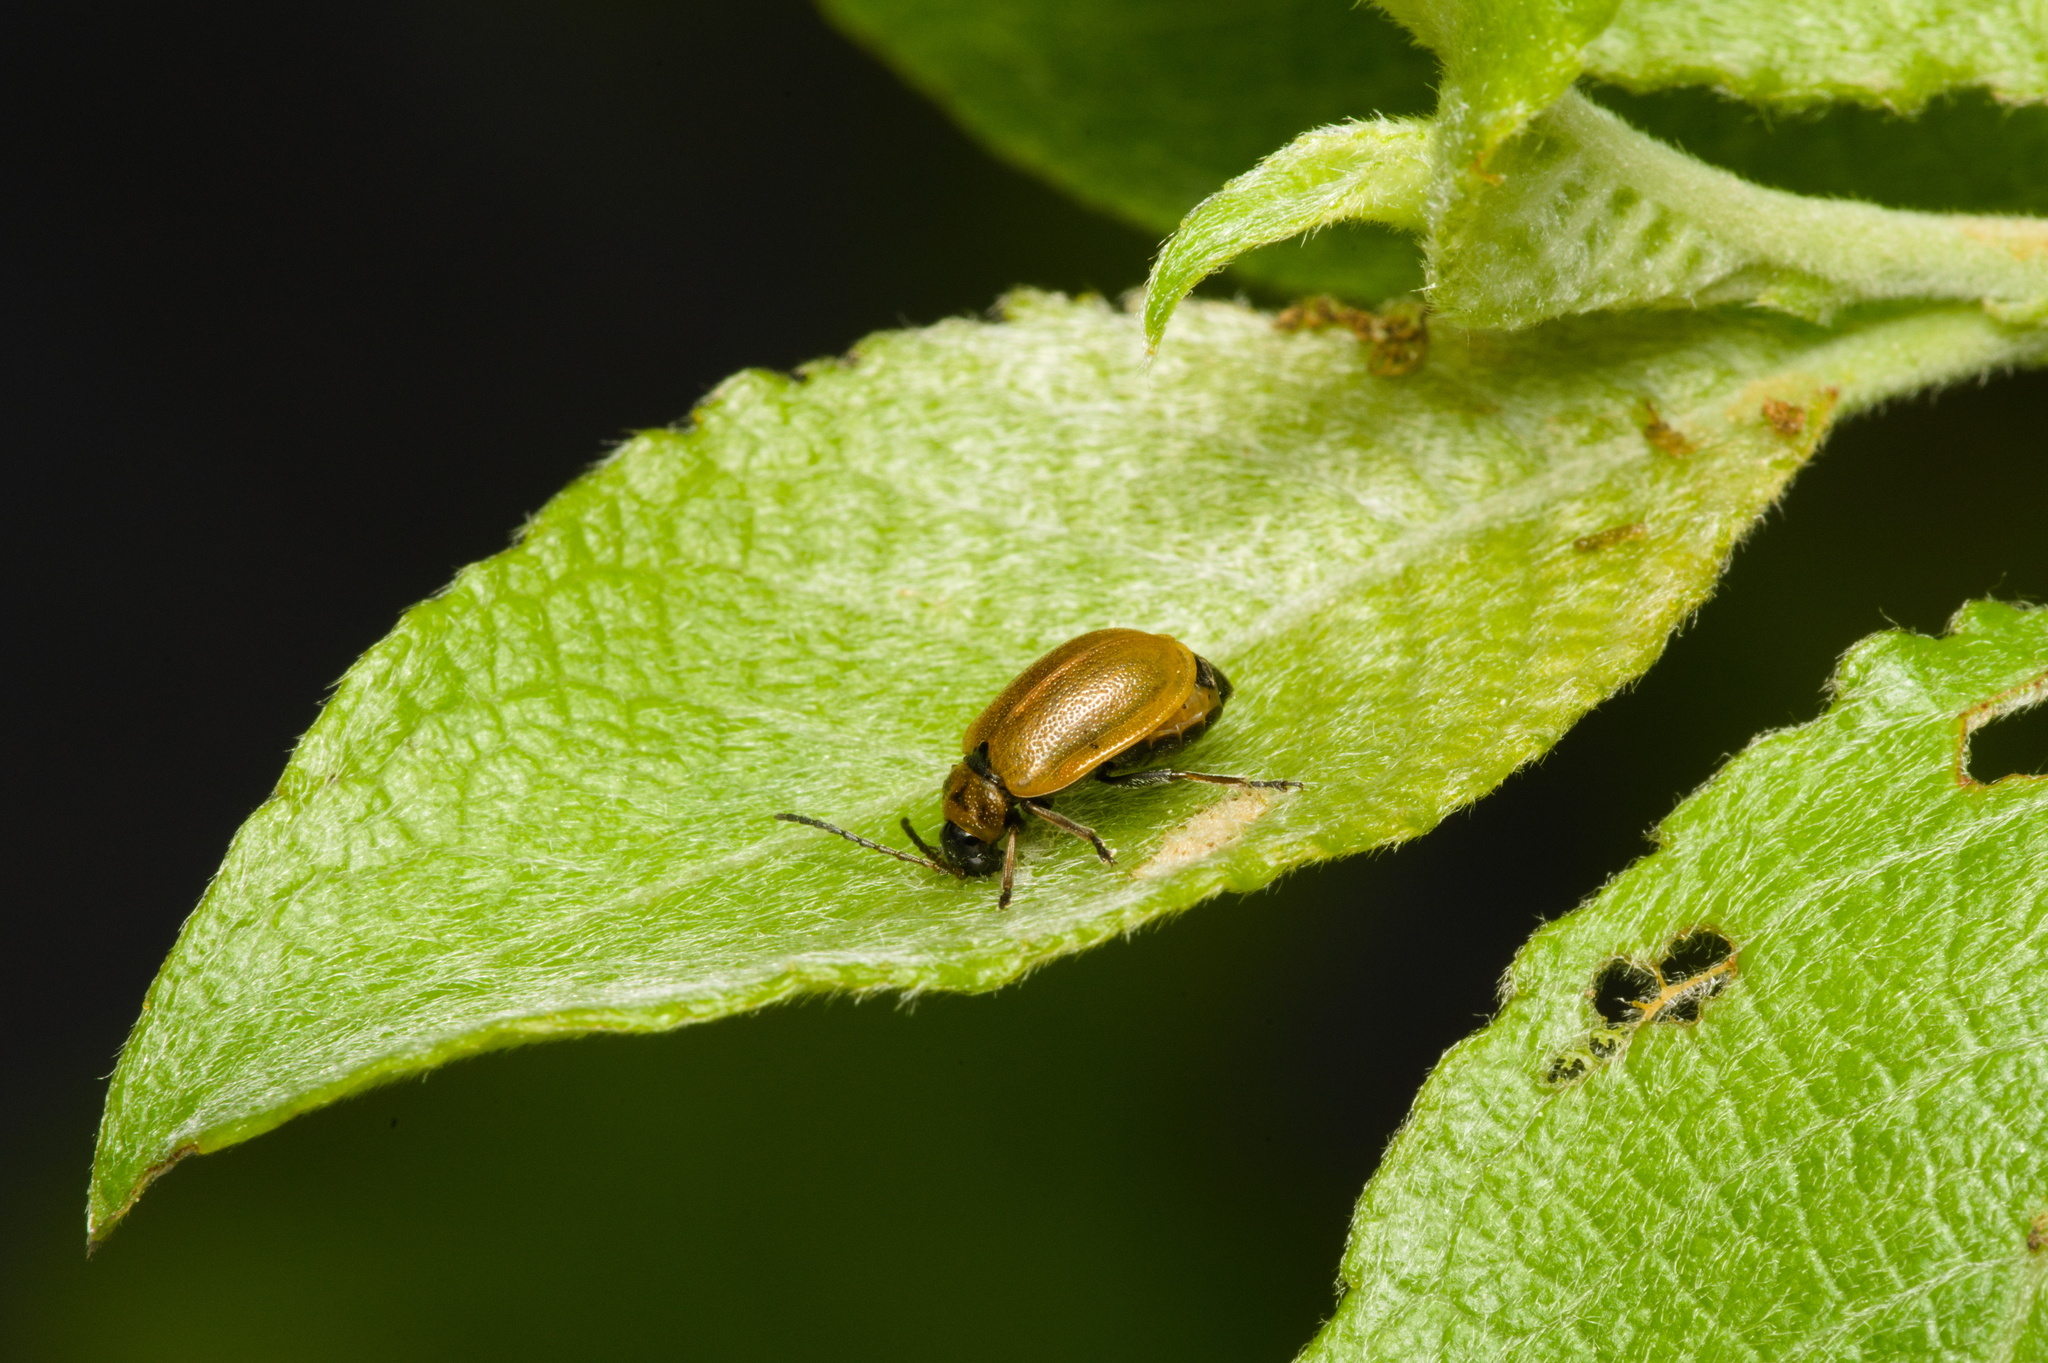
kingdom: Animalia
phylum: Arthropoda
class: Insecta
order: Coleoptera
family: Chrysomelidae
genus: Lochmaea
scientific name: Lochmaea caprea
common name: Willow leaf beetle
